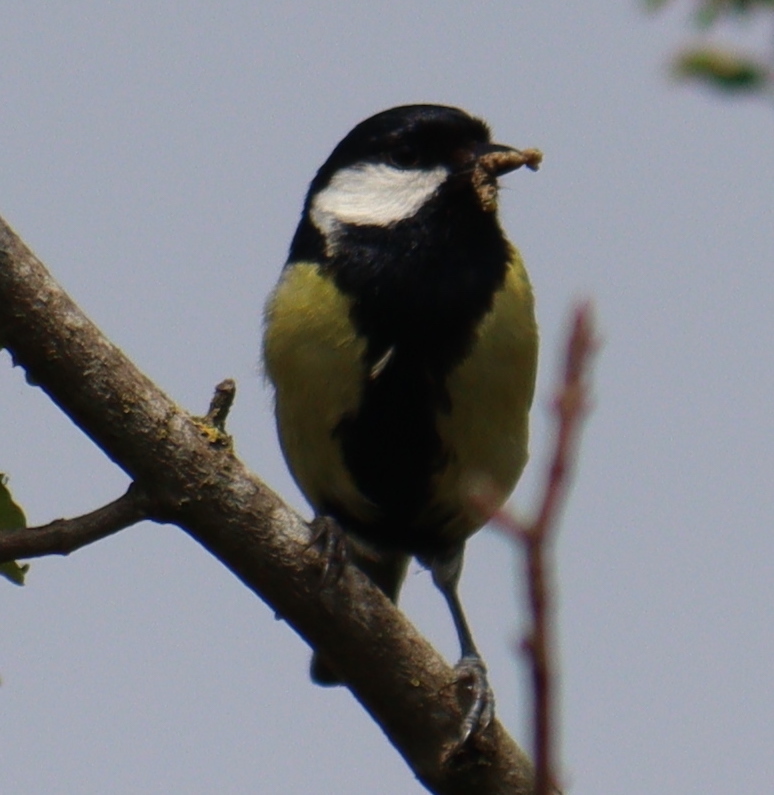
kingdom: Animalia
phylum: Chordata
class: Aves
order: Passeriformes
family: Paridae
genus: Parus
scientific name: Parus major
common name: Great tit
